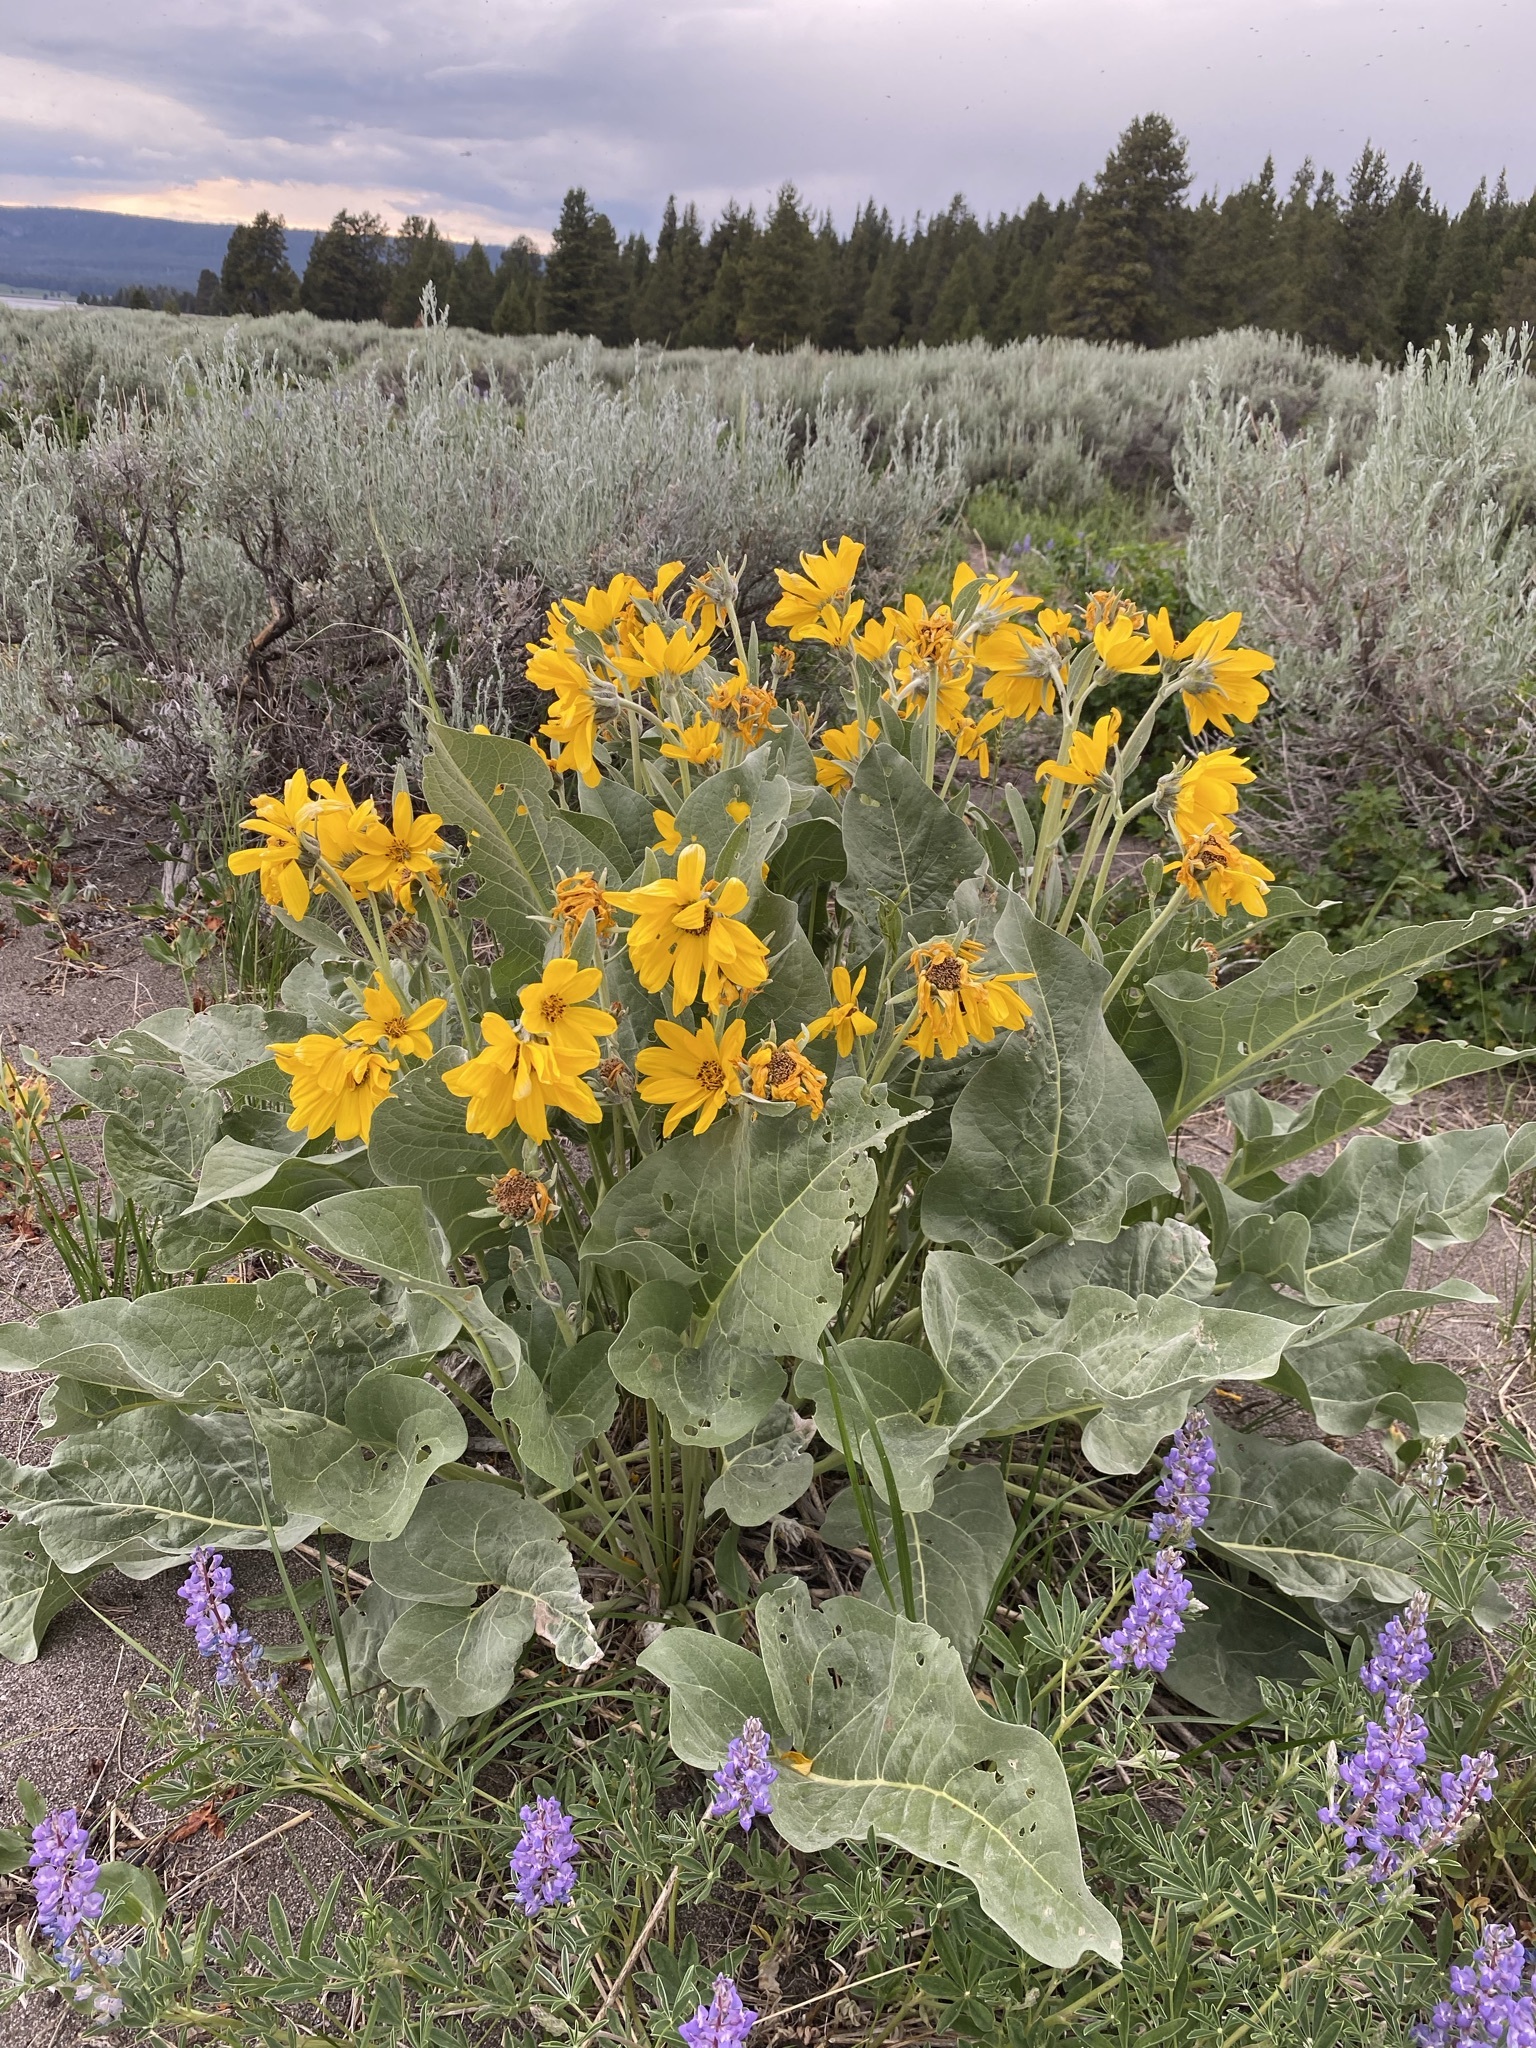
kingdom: Plantae
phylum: Tracheophyta
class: Magnoliopsida
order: Asterales
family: Asteraceae
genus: Wyethia
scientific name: Wyethia sagittata
